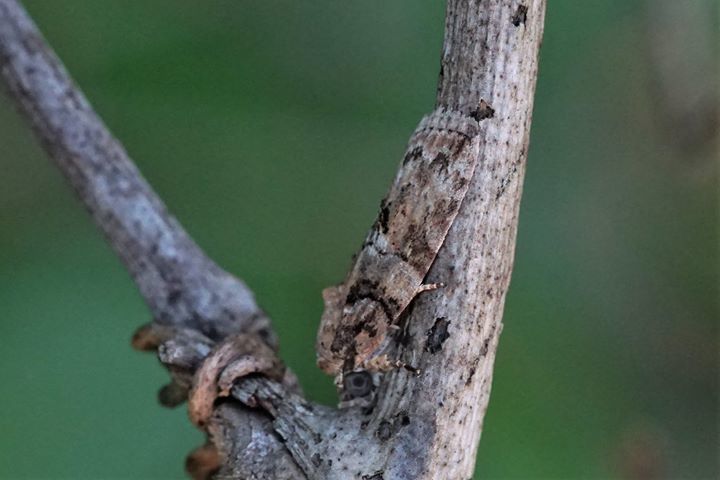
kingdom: Animalia
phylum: Arthropoda
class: Insecta
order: Lepidoptera
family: Nolidae
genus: Garella
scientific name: Garella nilotica
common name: Black-olive caterpillar moth
